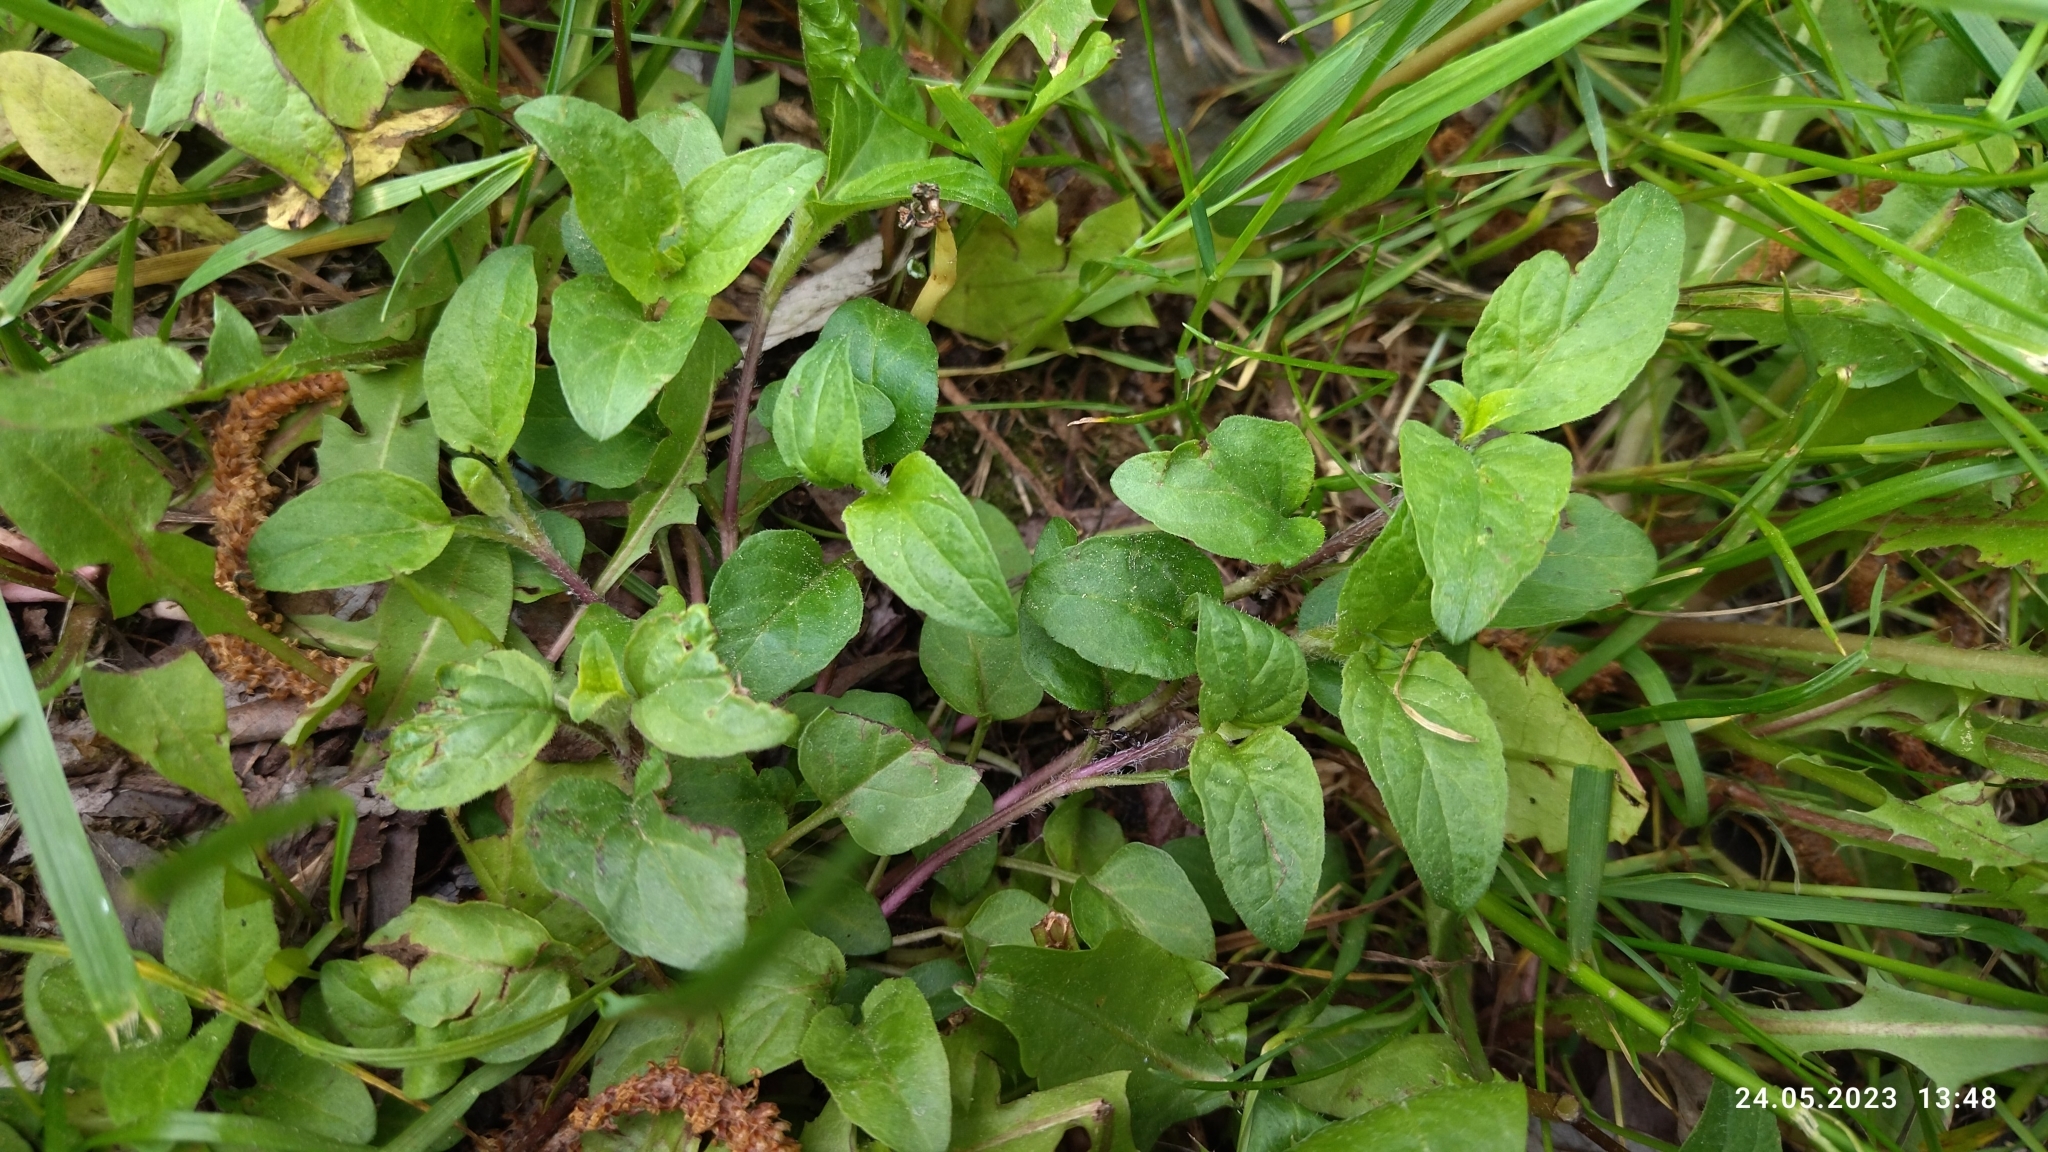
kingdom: Plantae
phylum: Tracheophyta
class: Magnoliopsida
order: Lamiales
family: Lamiaceae
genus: Prunella
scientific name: Prunella vulgaris
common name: Heal-all
